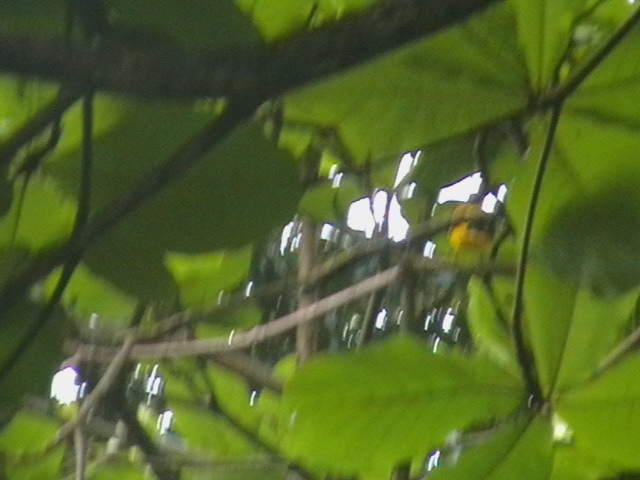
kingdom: Animalia
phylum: Chordata
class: Aves
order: Passeriformes
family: Oriolidae
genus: Oriolus
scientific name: Oriolus xanthornus
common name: Black-hooded oriole
